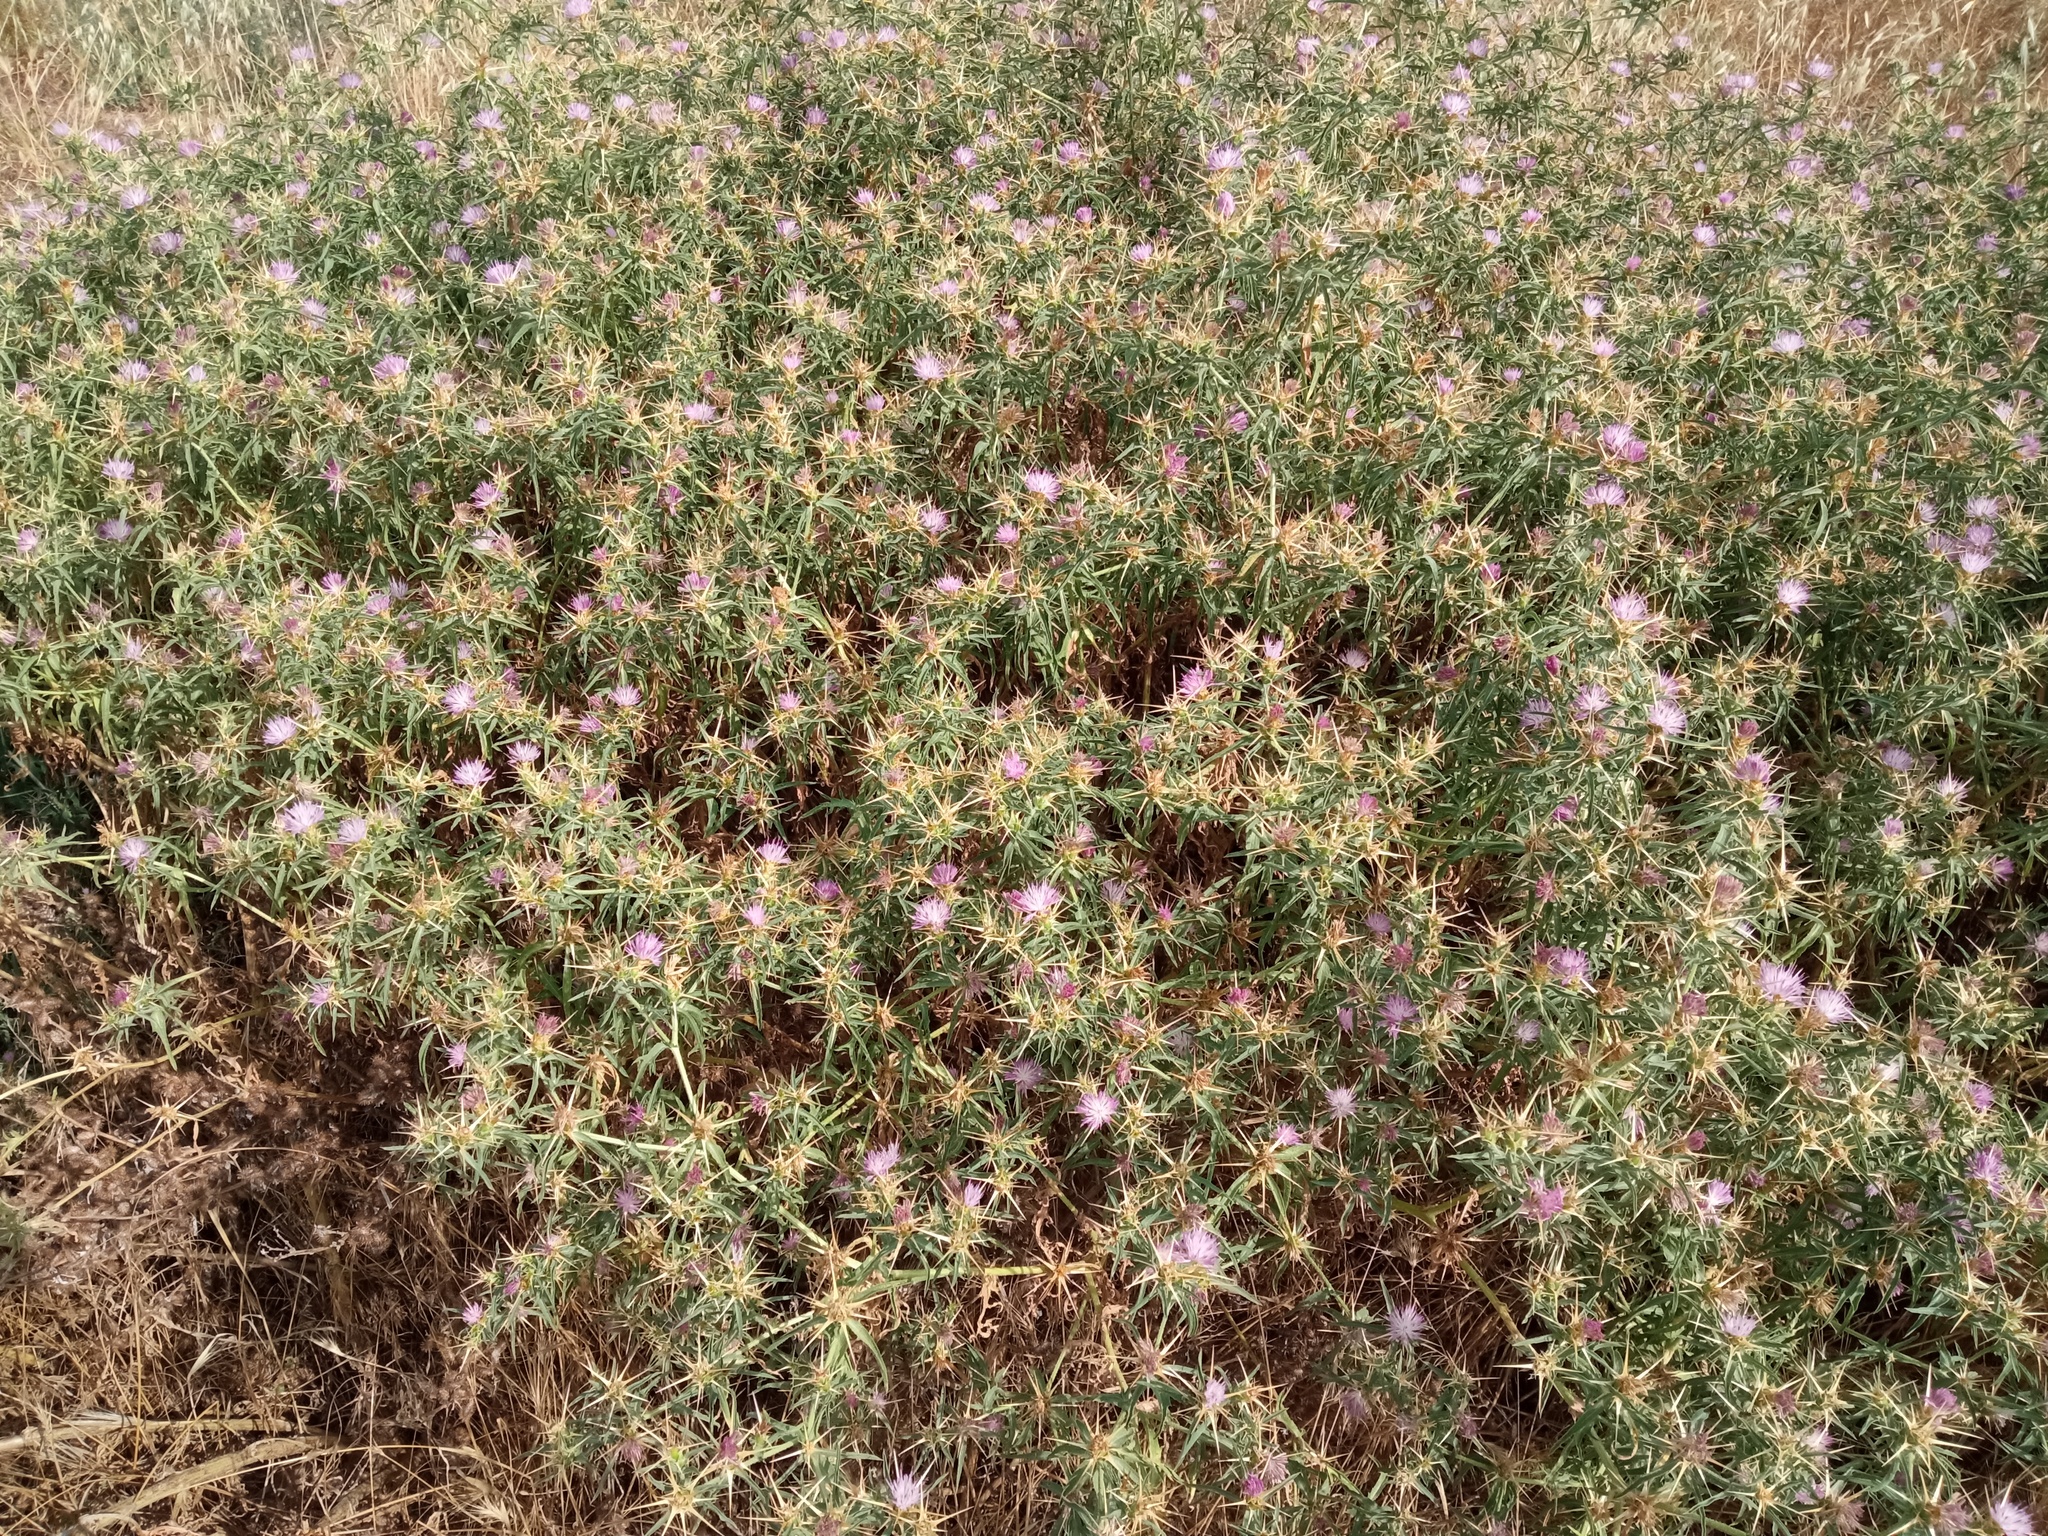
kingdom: Plantae
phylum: Tracheophyta
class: Magnoliopsida
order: Asterales
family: Asteraceae
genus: Centaurea
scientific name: Centaurea calcitrapa
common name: Red star-thistle
